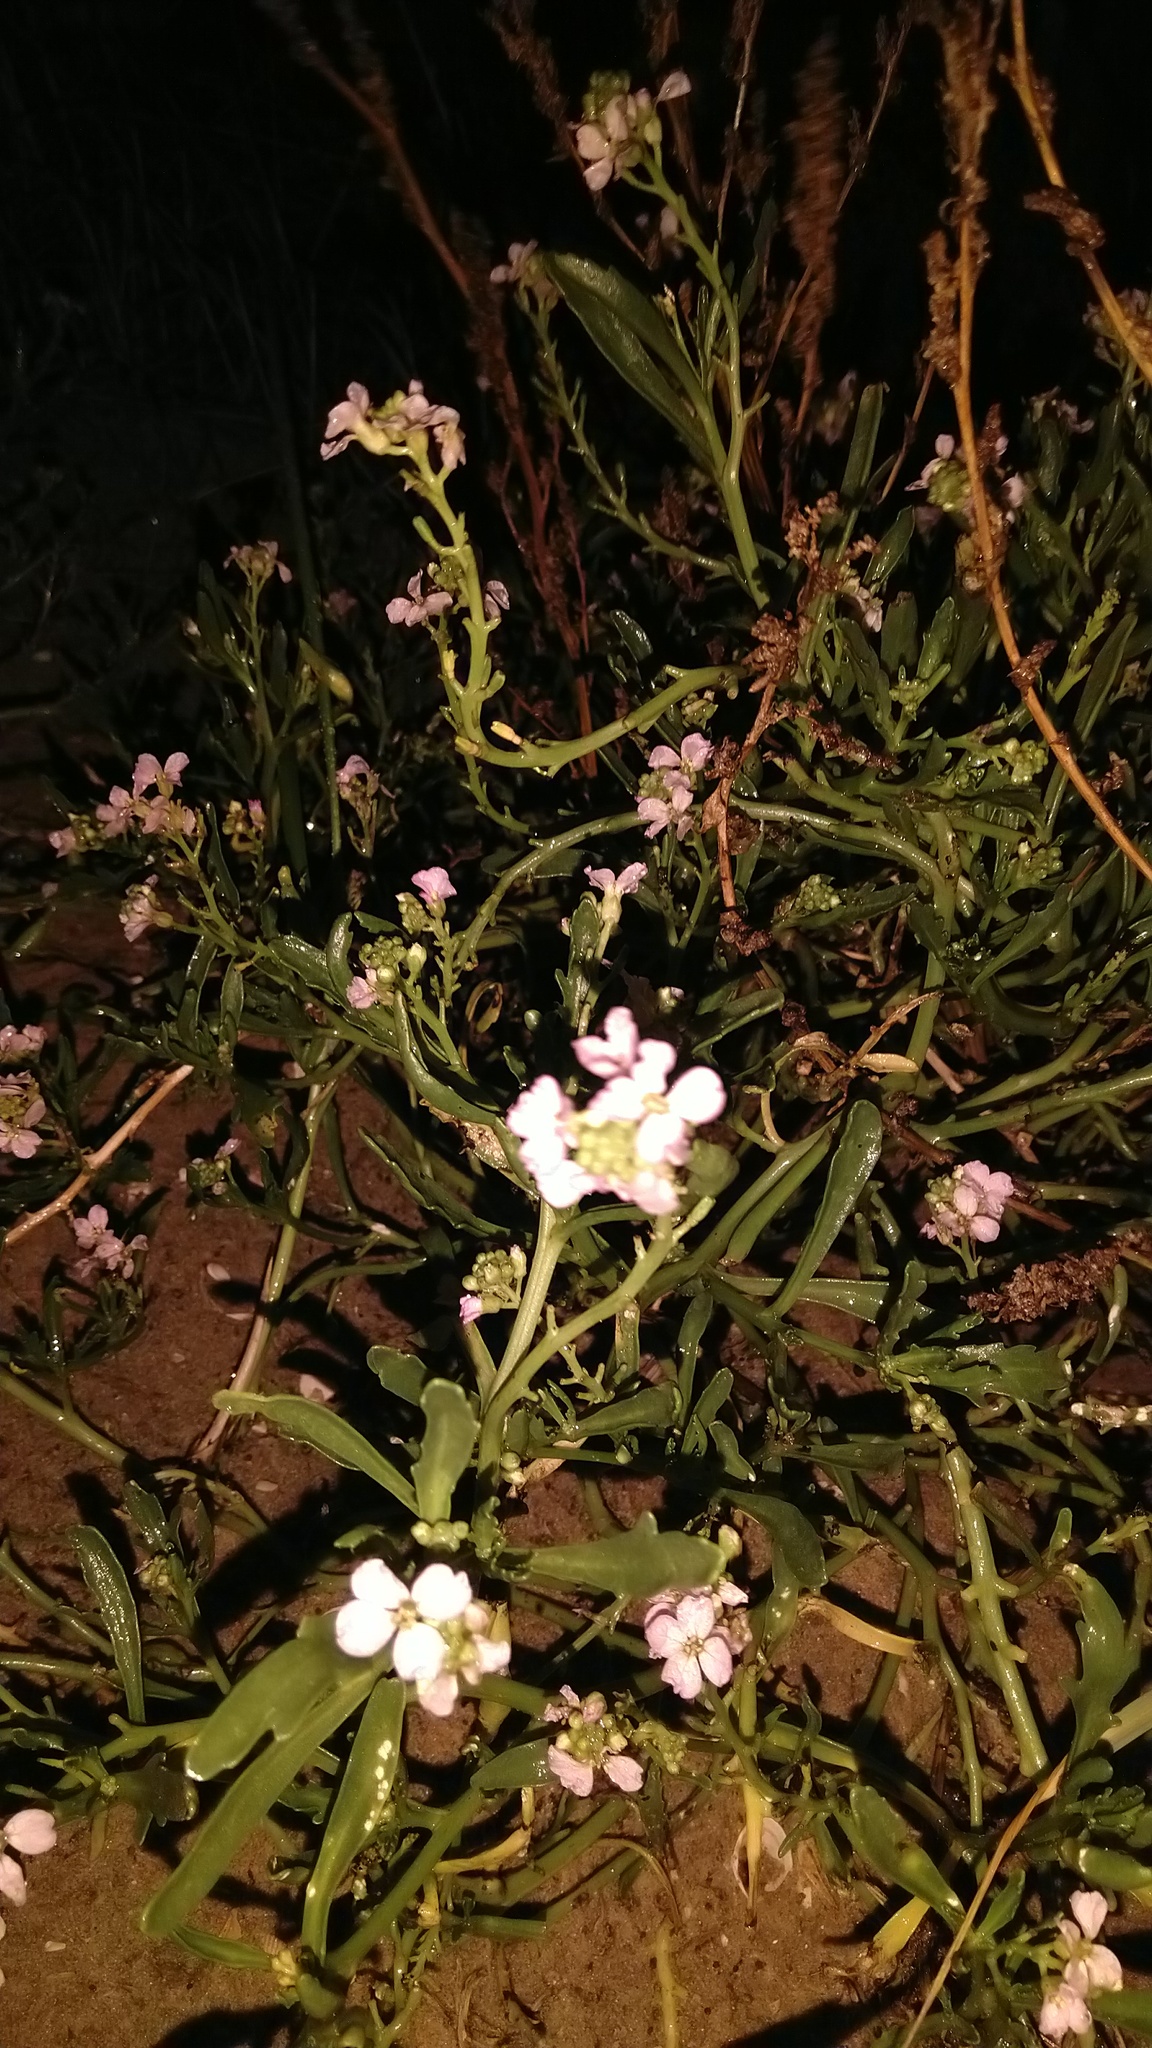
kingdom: Plantae
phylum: Tracheophyta
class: Magnoliopsida
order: Brassicales
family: Brassicaceae
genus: Cakile
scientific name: Cakile maritima
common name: Sea rocket
